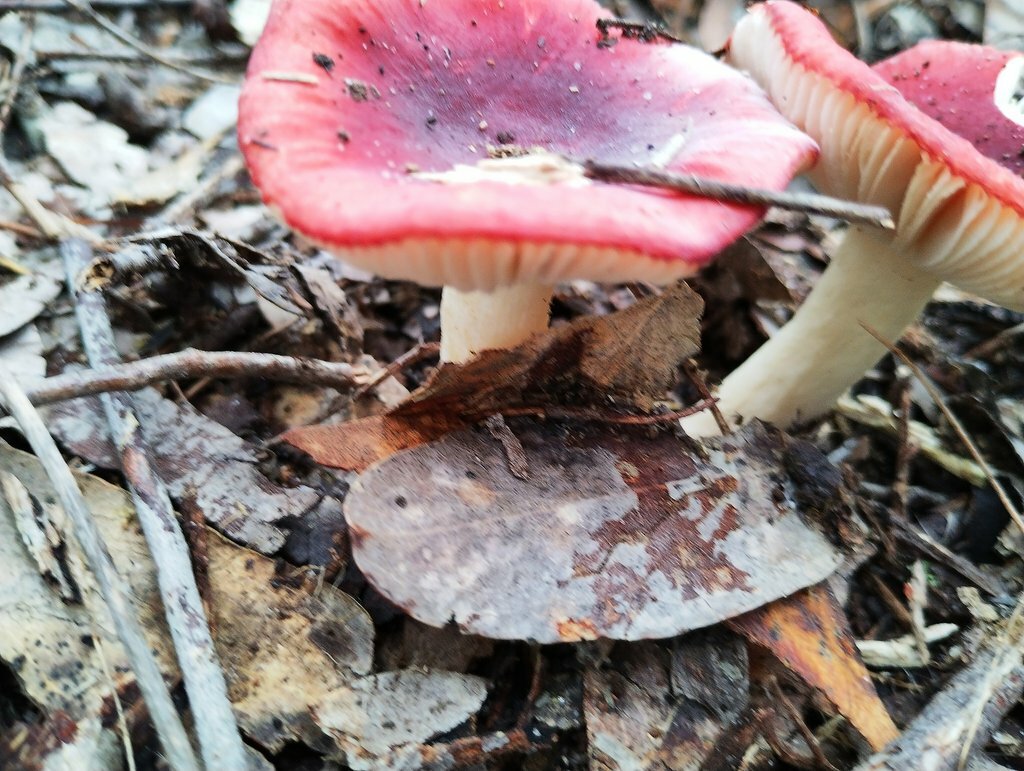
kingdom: Fungi
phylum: Basidiomycota
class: Agaricomycetes
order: Russulales
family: Russulaceae
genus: Russula
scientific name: Russula persanguinea
